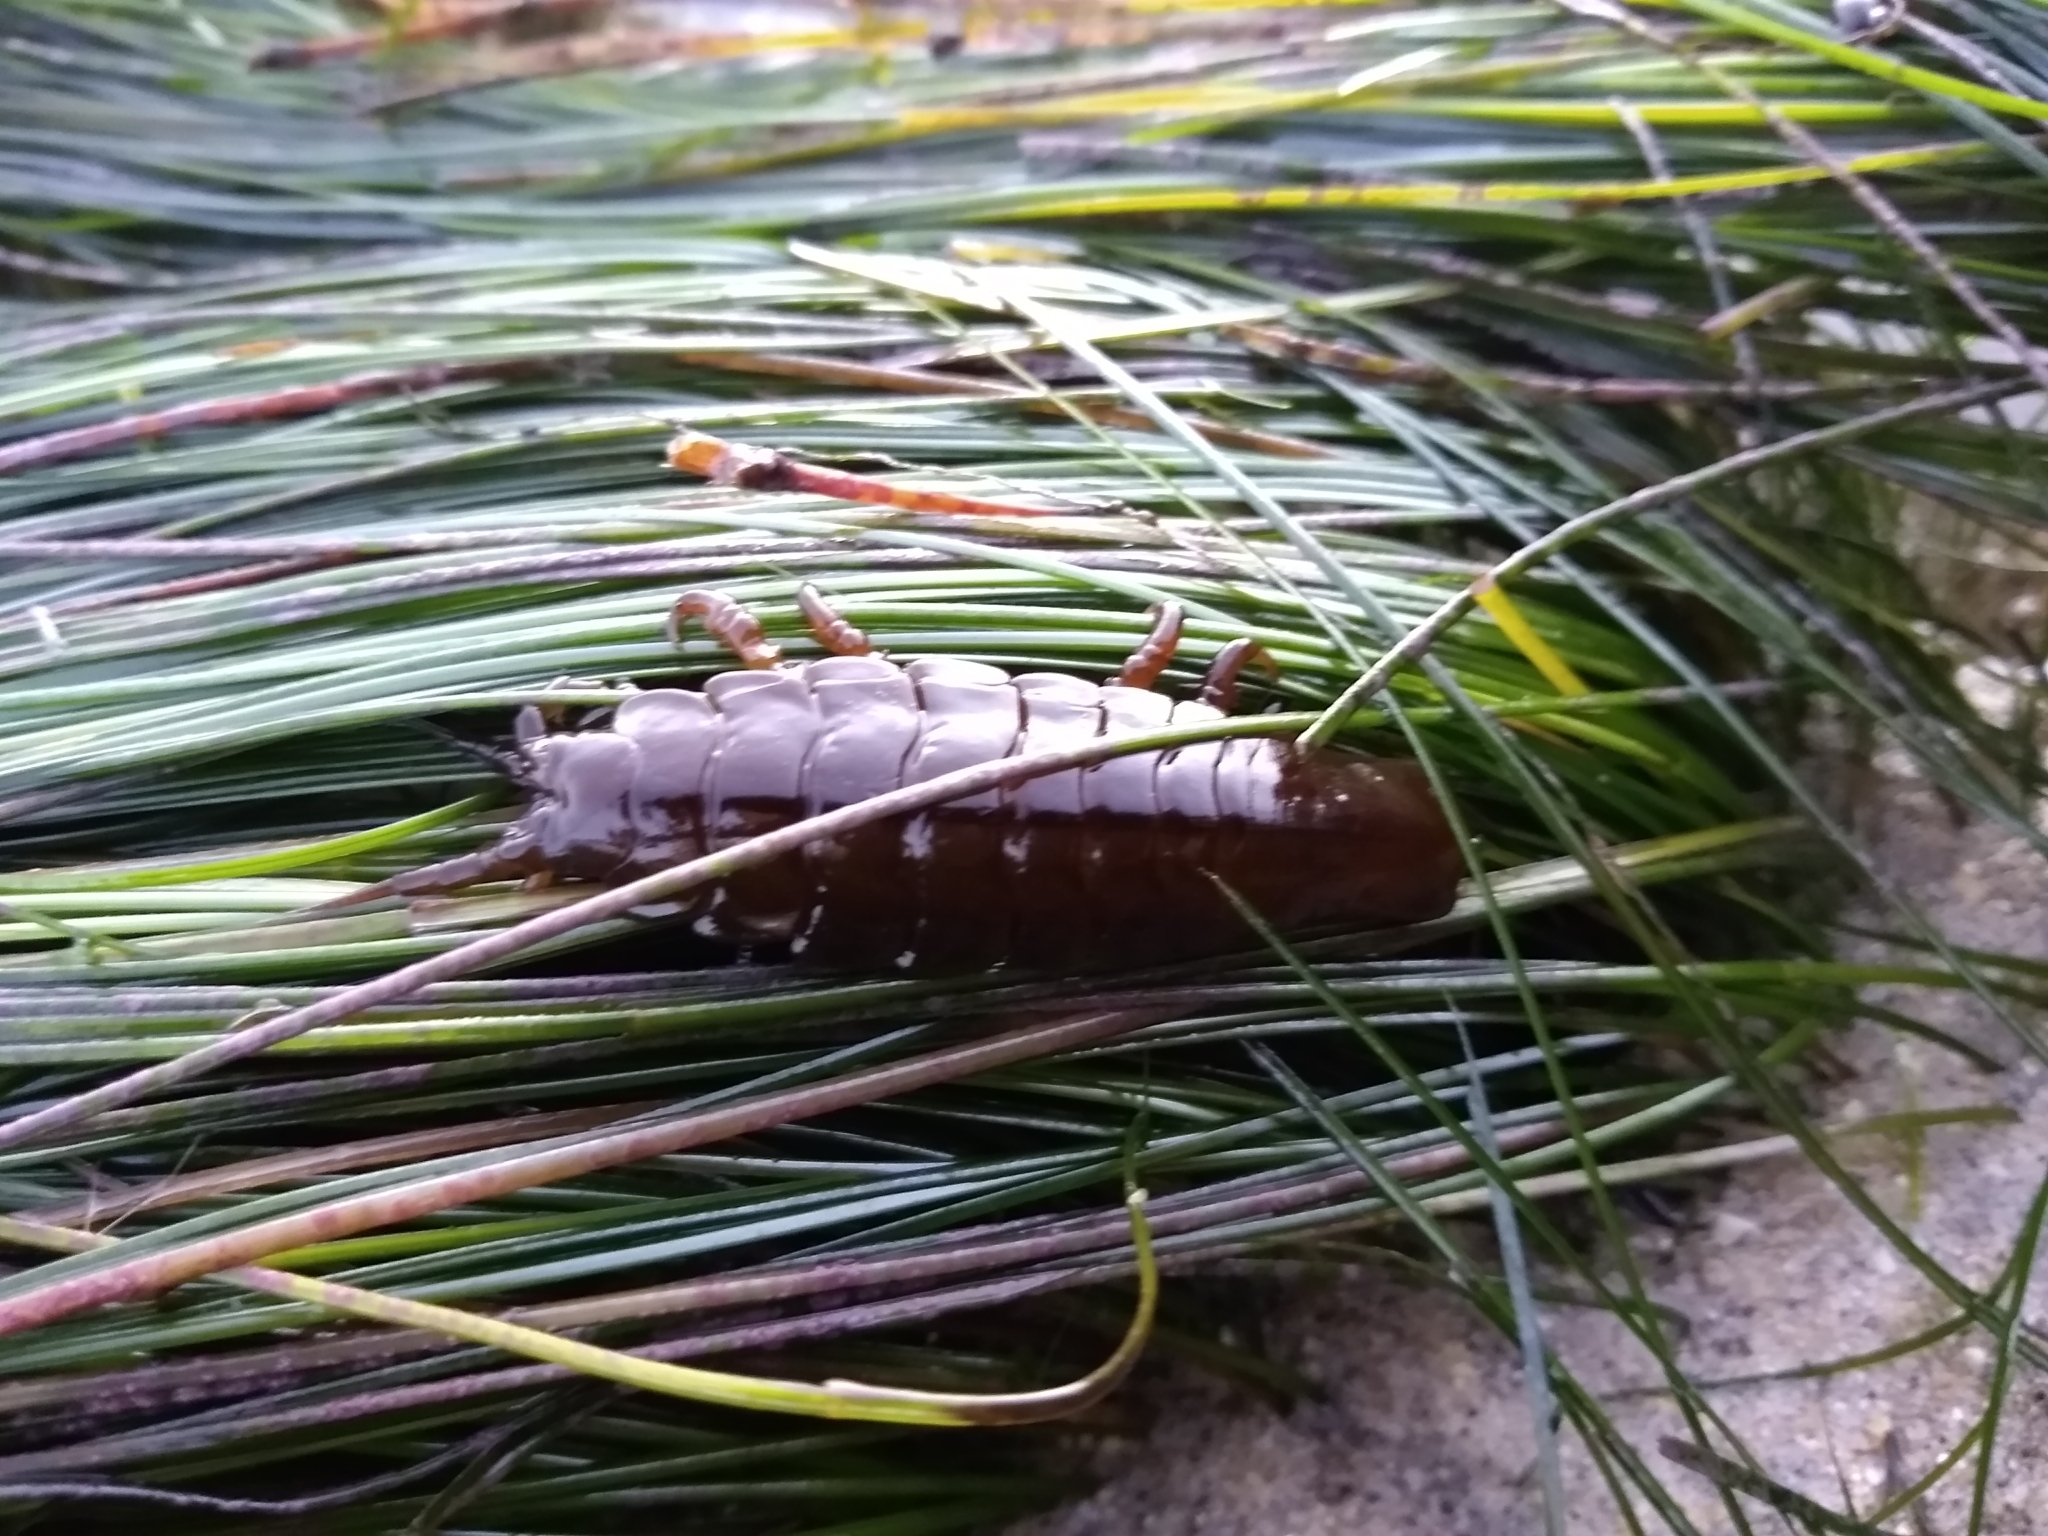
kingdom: Animalia
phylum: Arthropoda
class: Malacostraca
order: Isopoda
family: Idoteidae
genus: Pentidotea
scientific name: Pentidotea stenops
